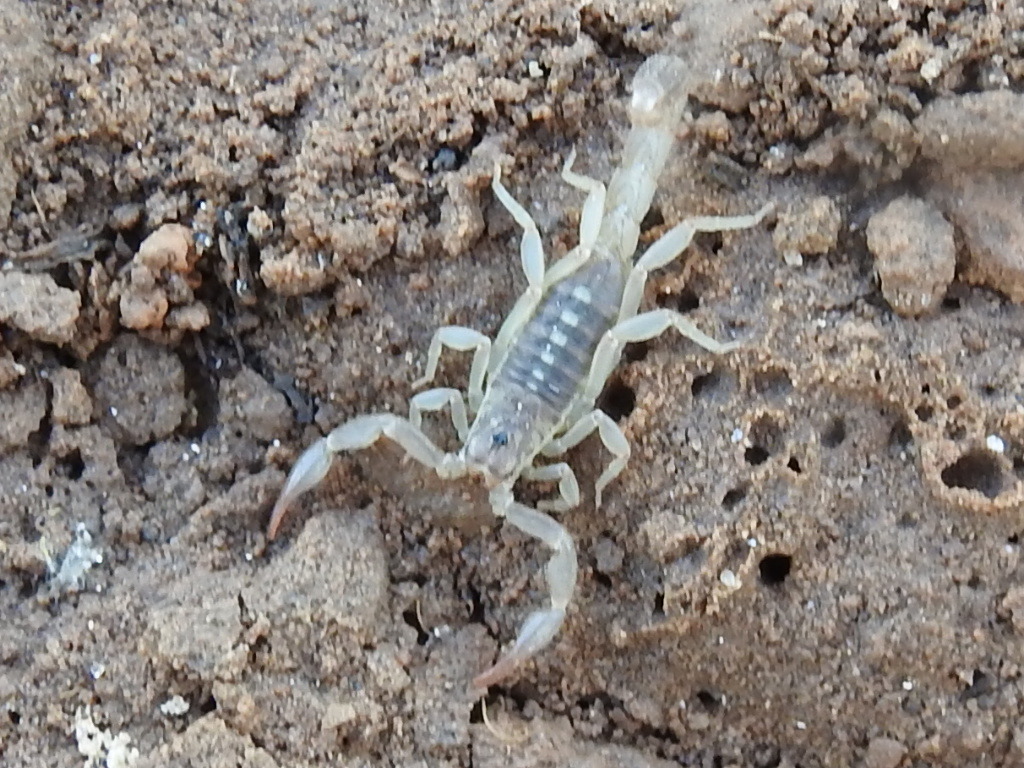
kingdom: Animalia
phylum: Arthropoda
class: Arachnida
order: Scorpiones
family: Vaejovidae
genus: Chihuahuanus
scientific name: Chihuahuanus coahuilae
